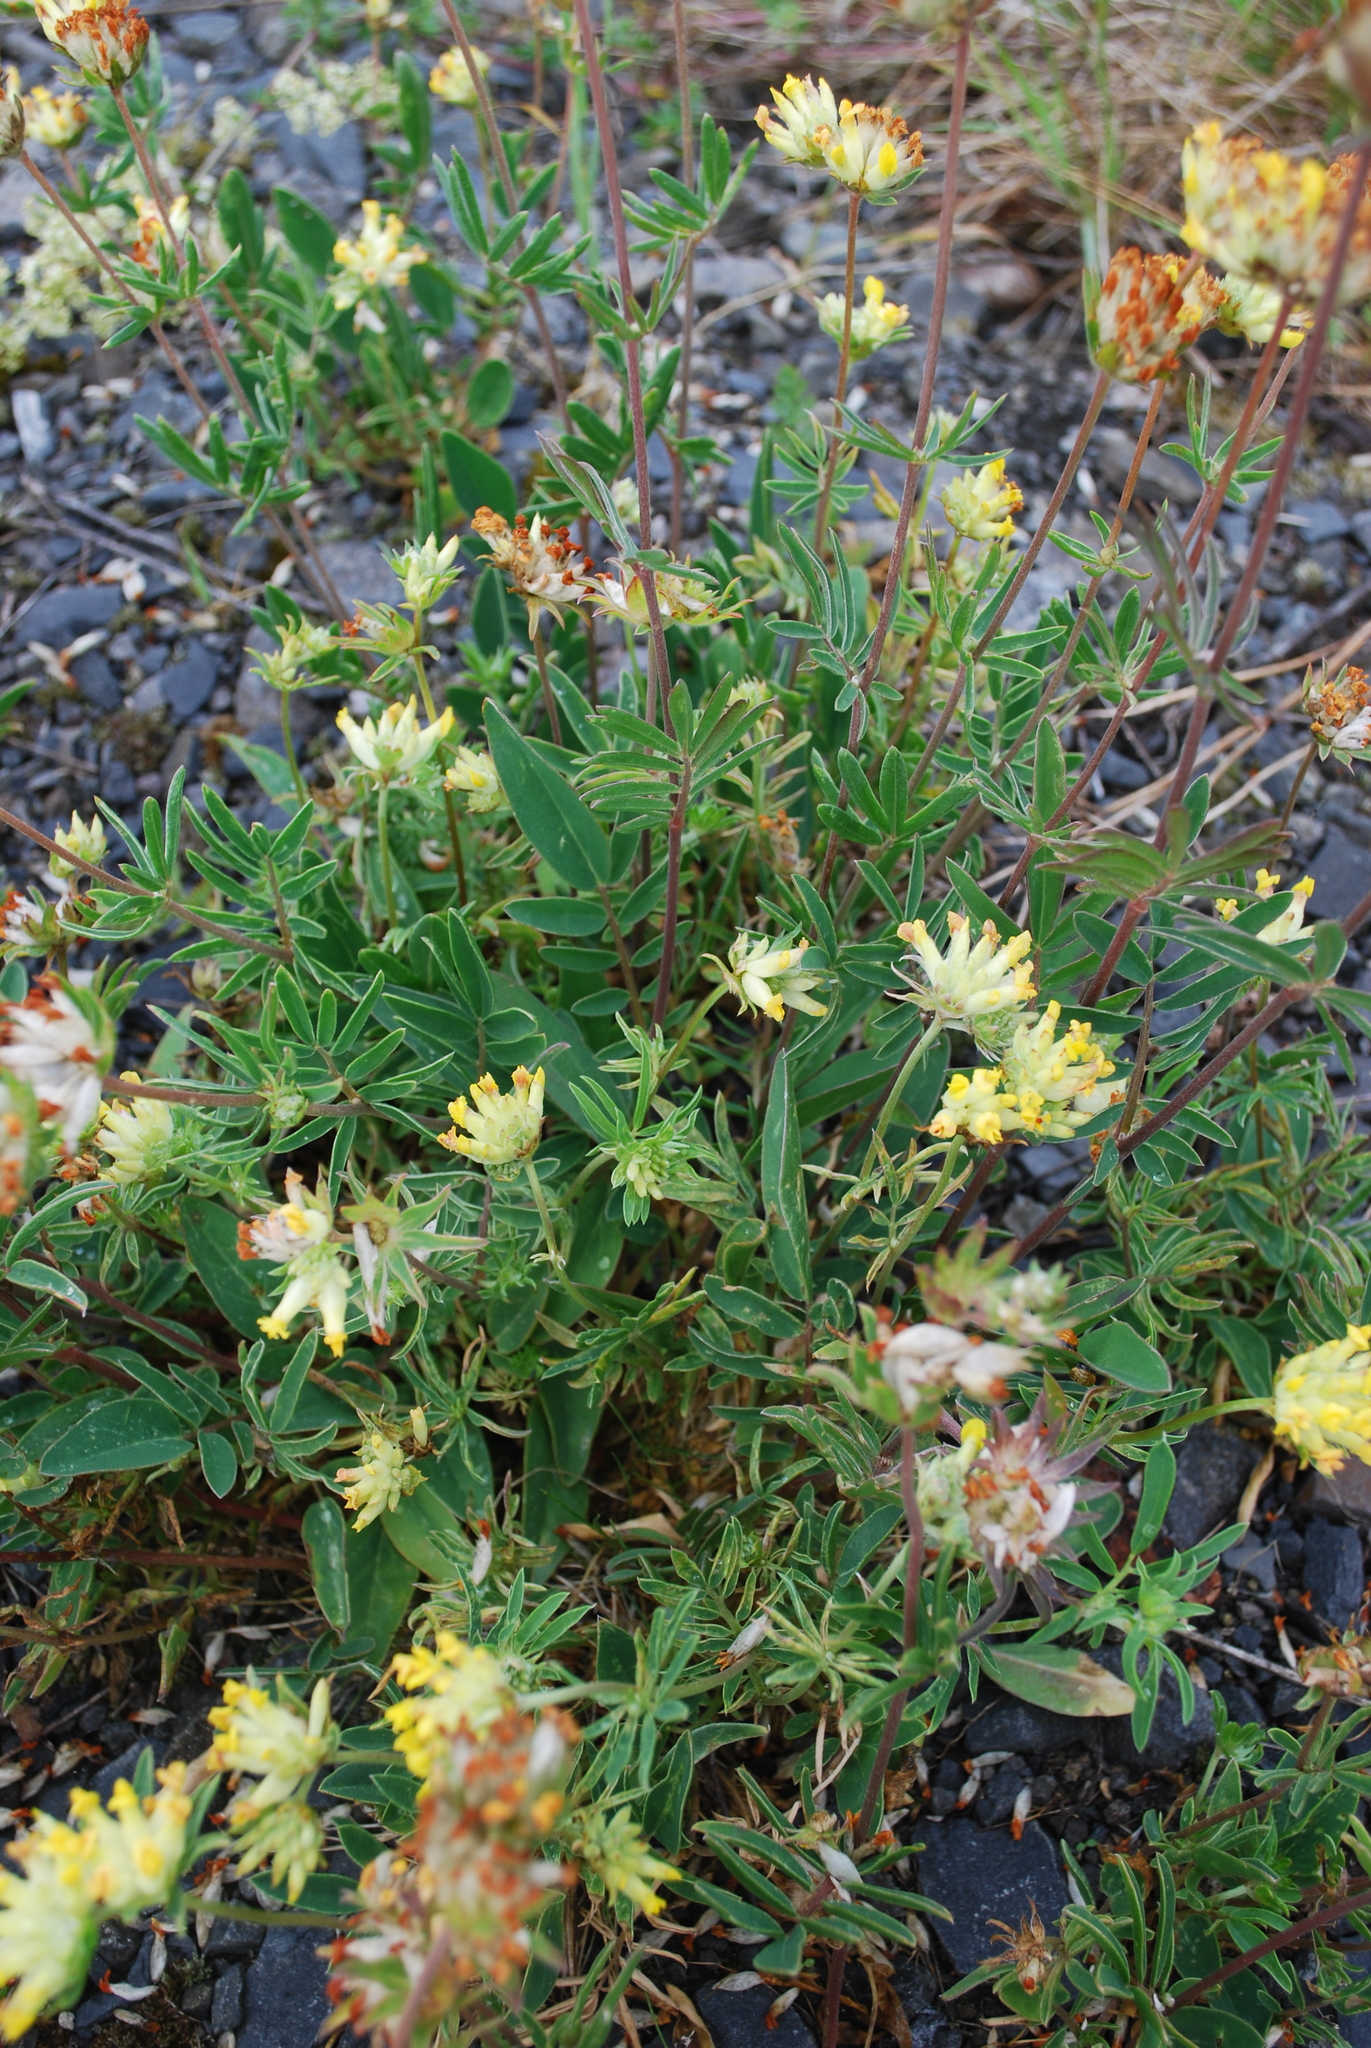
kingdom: Plantae
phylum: Tracheophyta
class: Magnoliopsida
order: Fabales
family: Fabaceae
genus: Anthyllis
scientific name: Anthyllis vulneraria
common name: Kidney vetch
